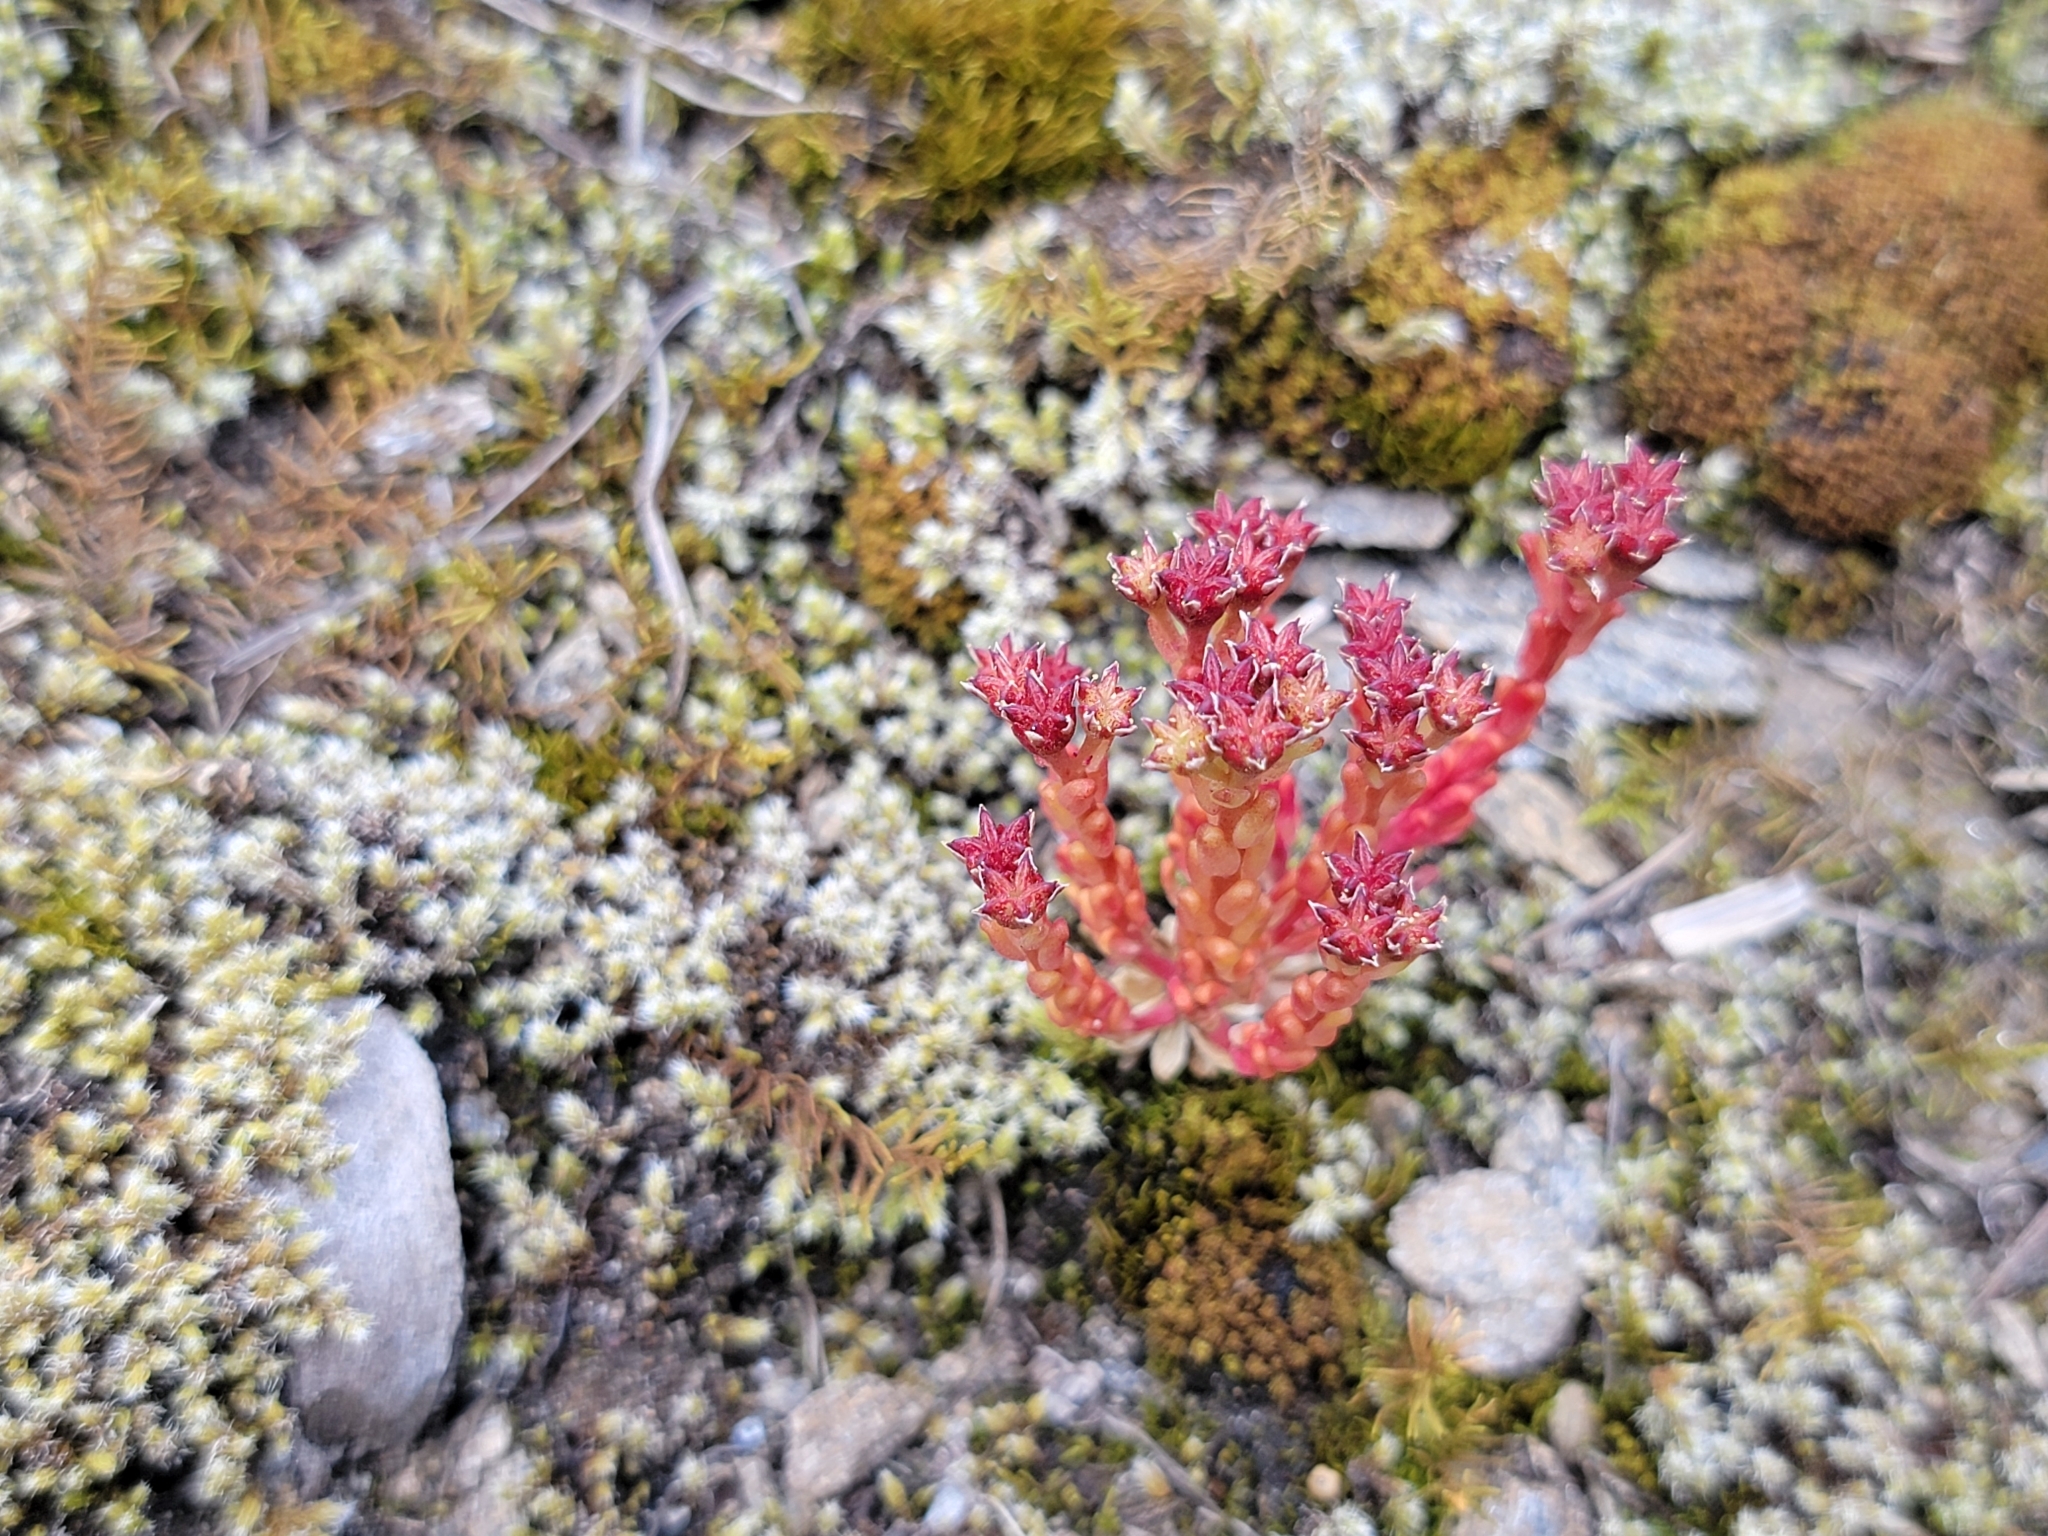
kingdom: Plantae
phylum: Tracheophyta
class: Magnoliopsida
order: Saxifragales
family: Crassulaceae
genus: Sedum
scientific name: Sedum atratum
